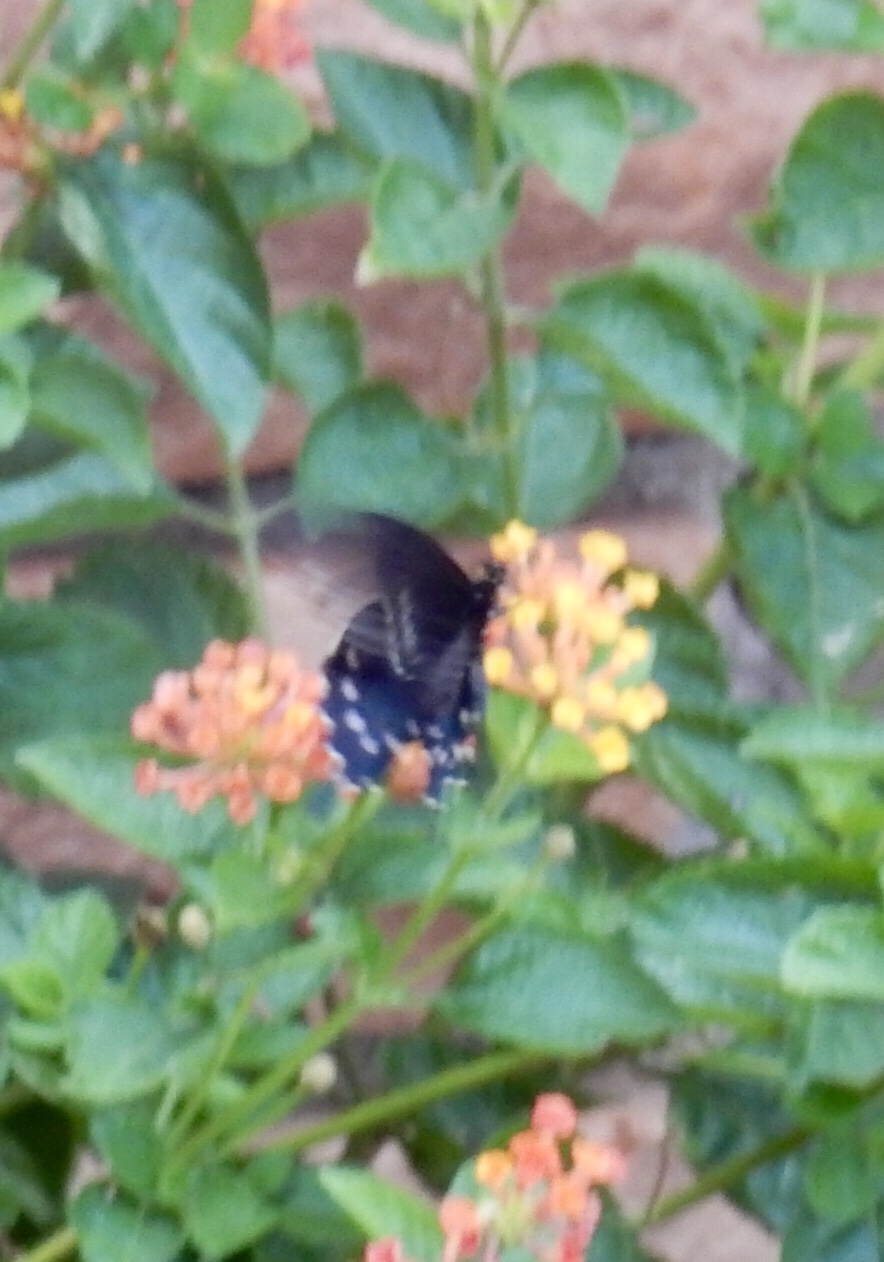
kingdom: Animalia
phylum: Arthropoda
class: Insecta
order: Lepidoptera
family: Papilionidae
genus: Battus
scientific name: Battus philenor
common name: Pipevine swallowtail
